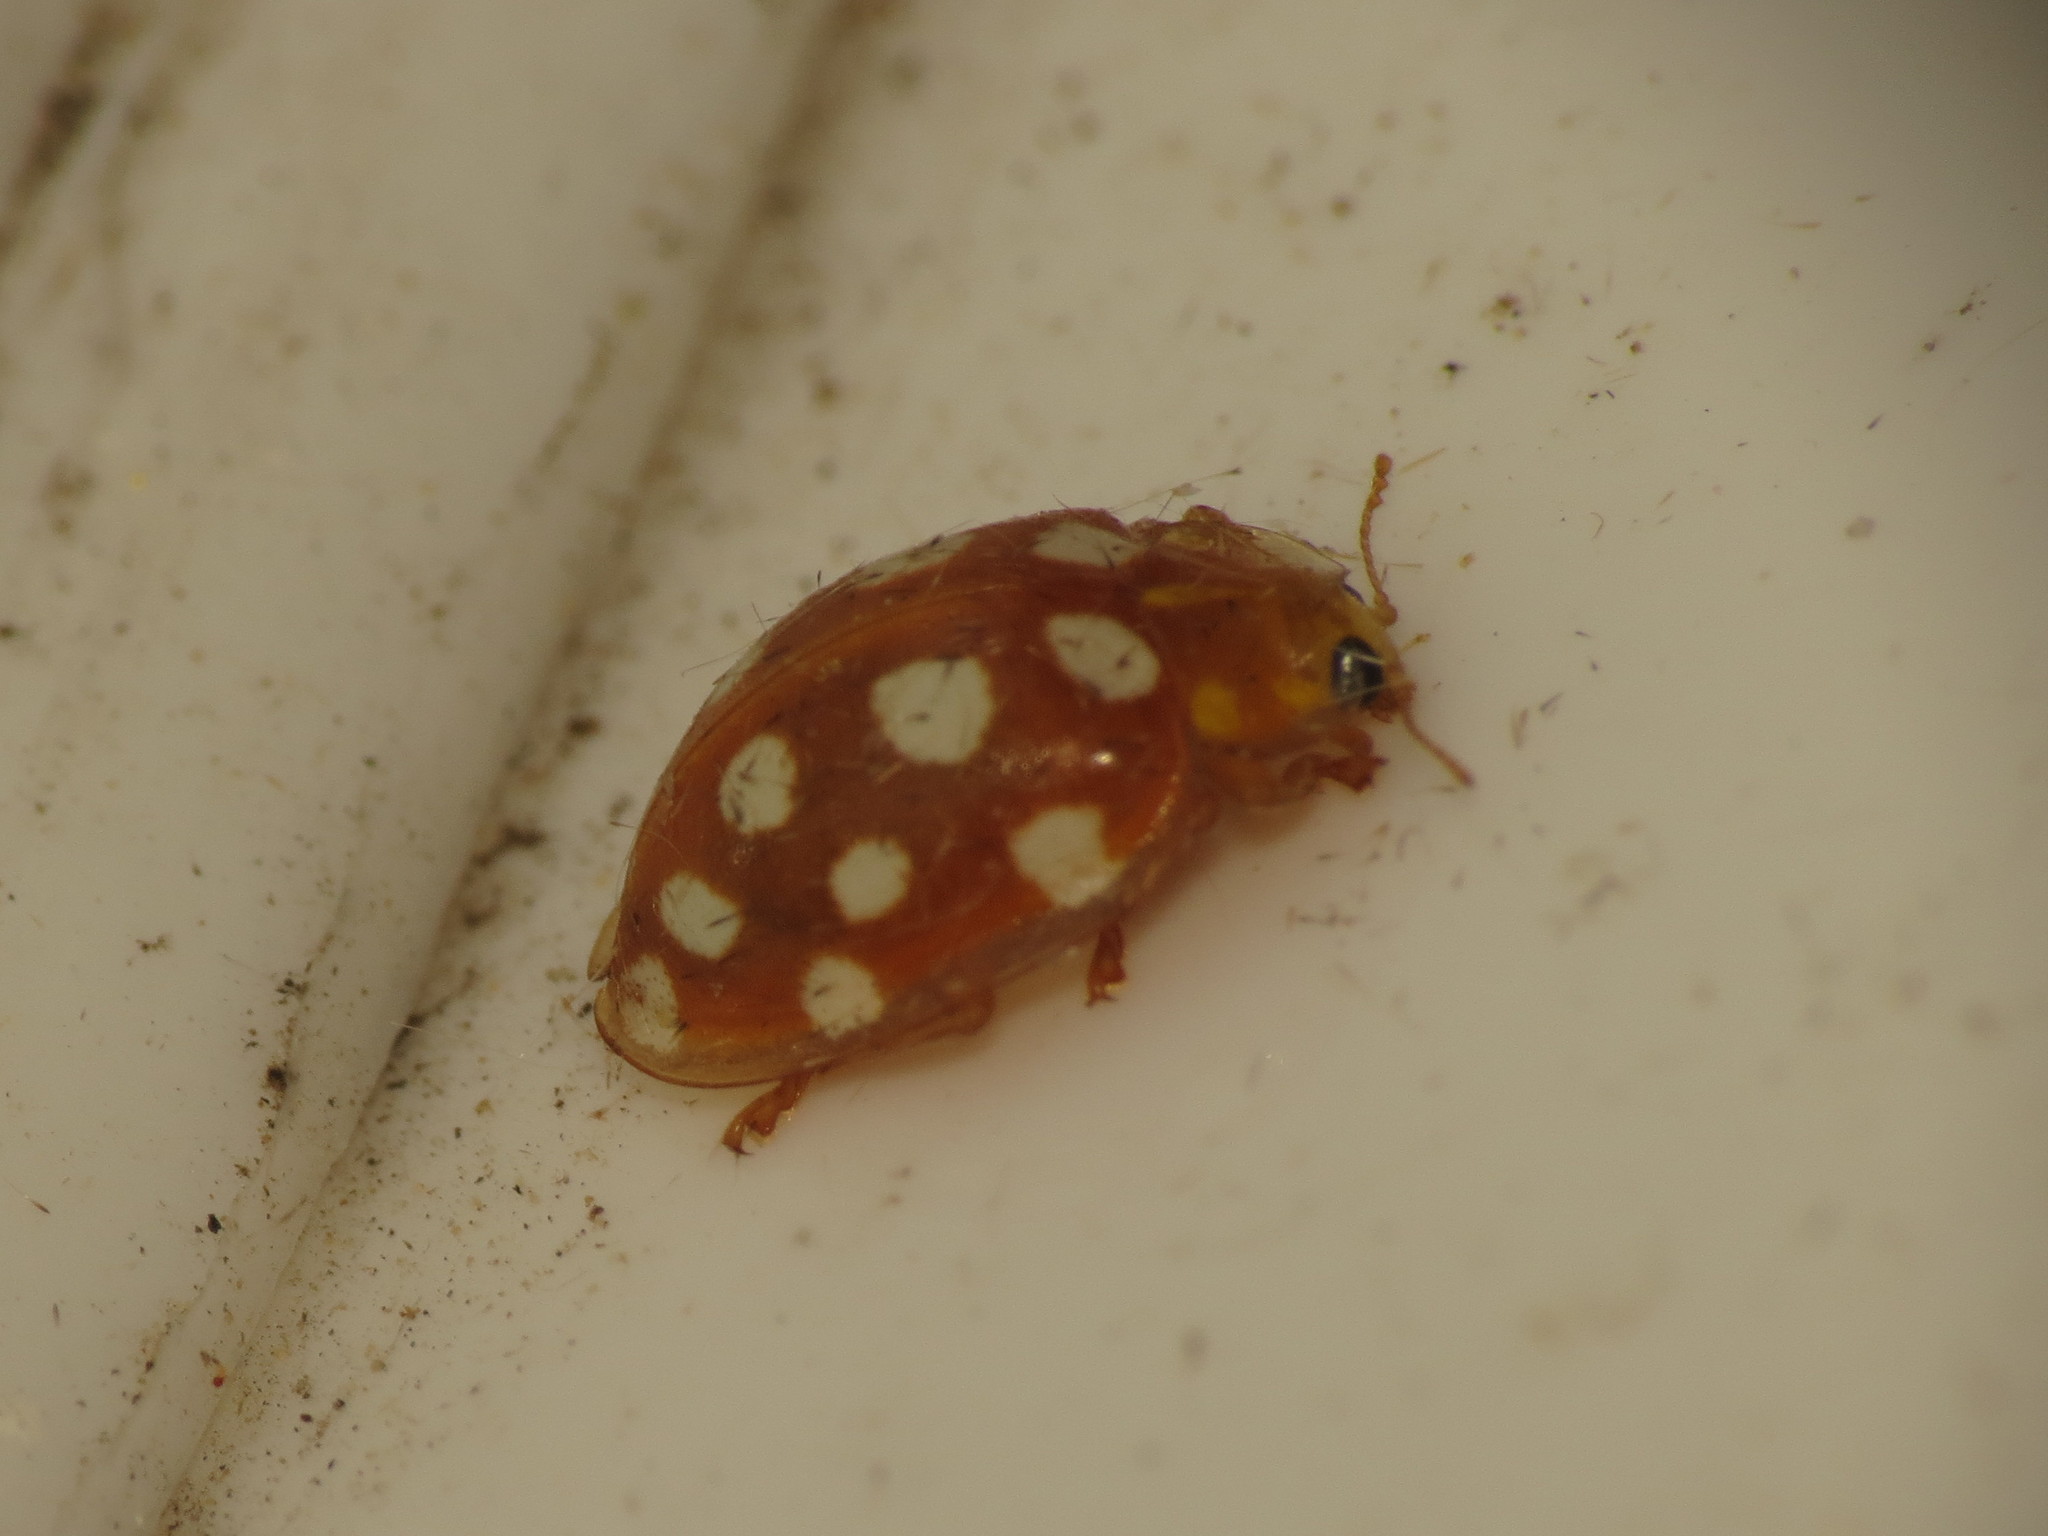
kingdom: Animalia
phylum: Arthropoda
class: Insecta
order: Coleoptera
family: Coccinellidae
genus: Halyzia
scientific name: Halyzia sedecimguttata
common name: Orange ladybird
